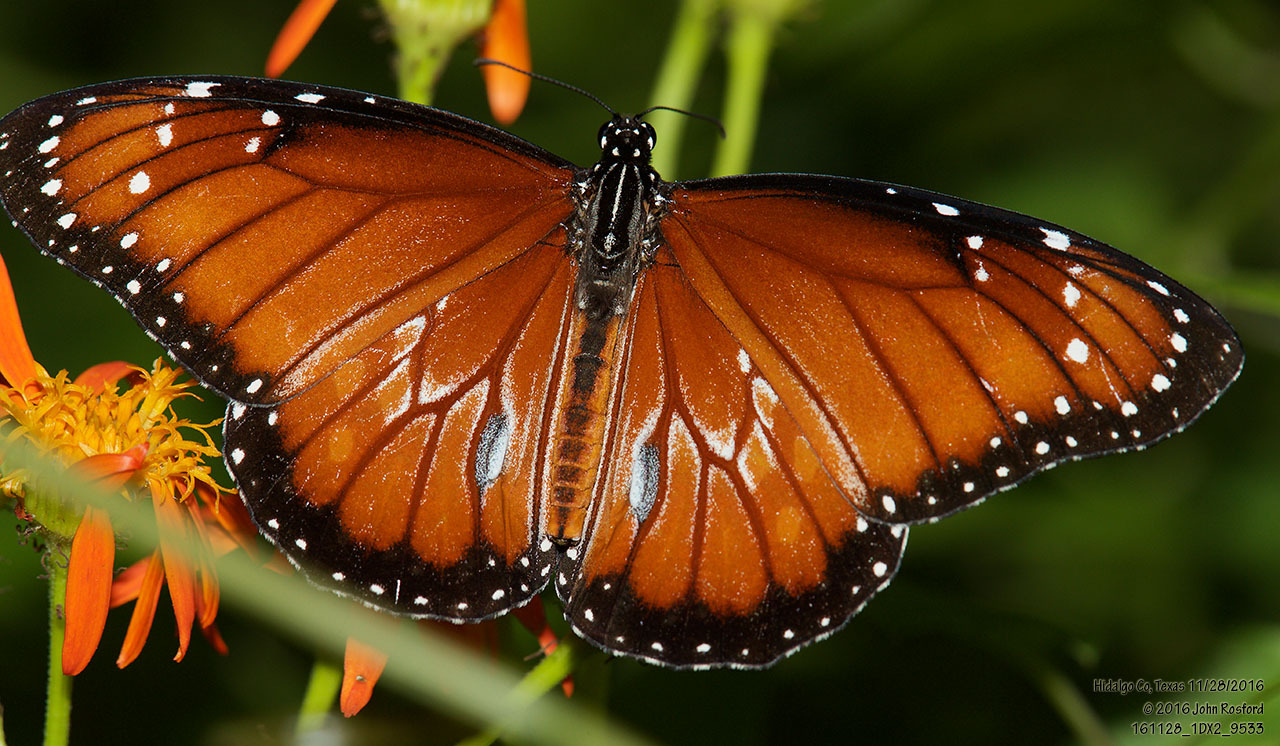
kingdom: Animalia
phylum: Arthropoda
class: Insecta
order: Lepidoptera
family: Nymphalidae
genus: Danaus
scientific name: Danaus eresimus
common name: Soldier
